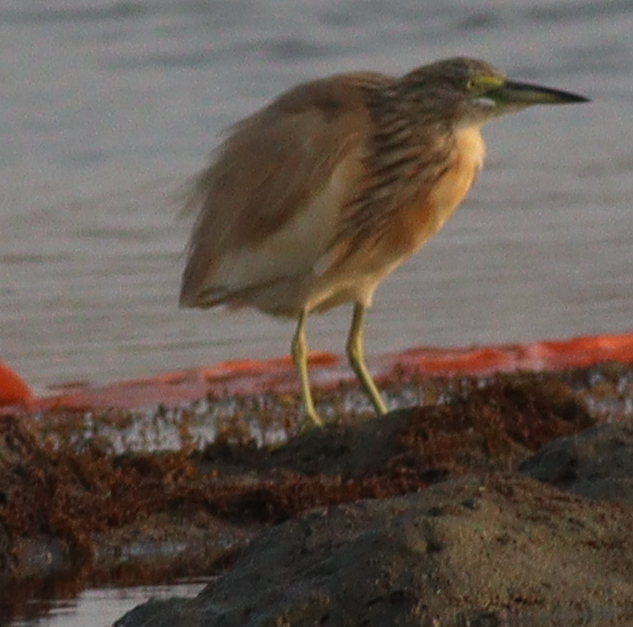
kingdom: Animalia
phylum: Chordata
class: Aves
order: Pelecaniformes
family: Ardeidae
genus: Ardeola
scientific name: Ardeola ralloides
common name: Squacco heron
